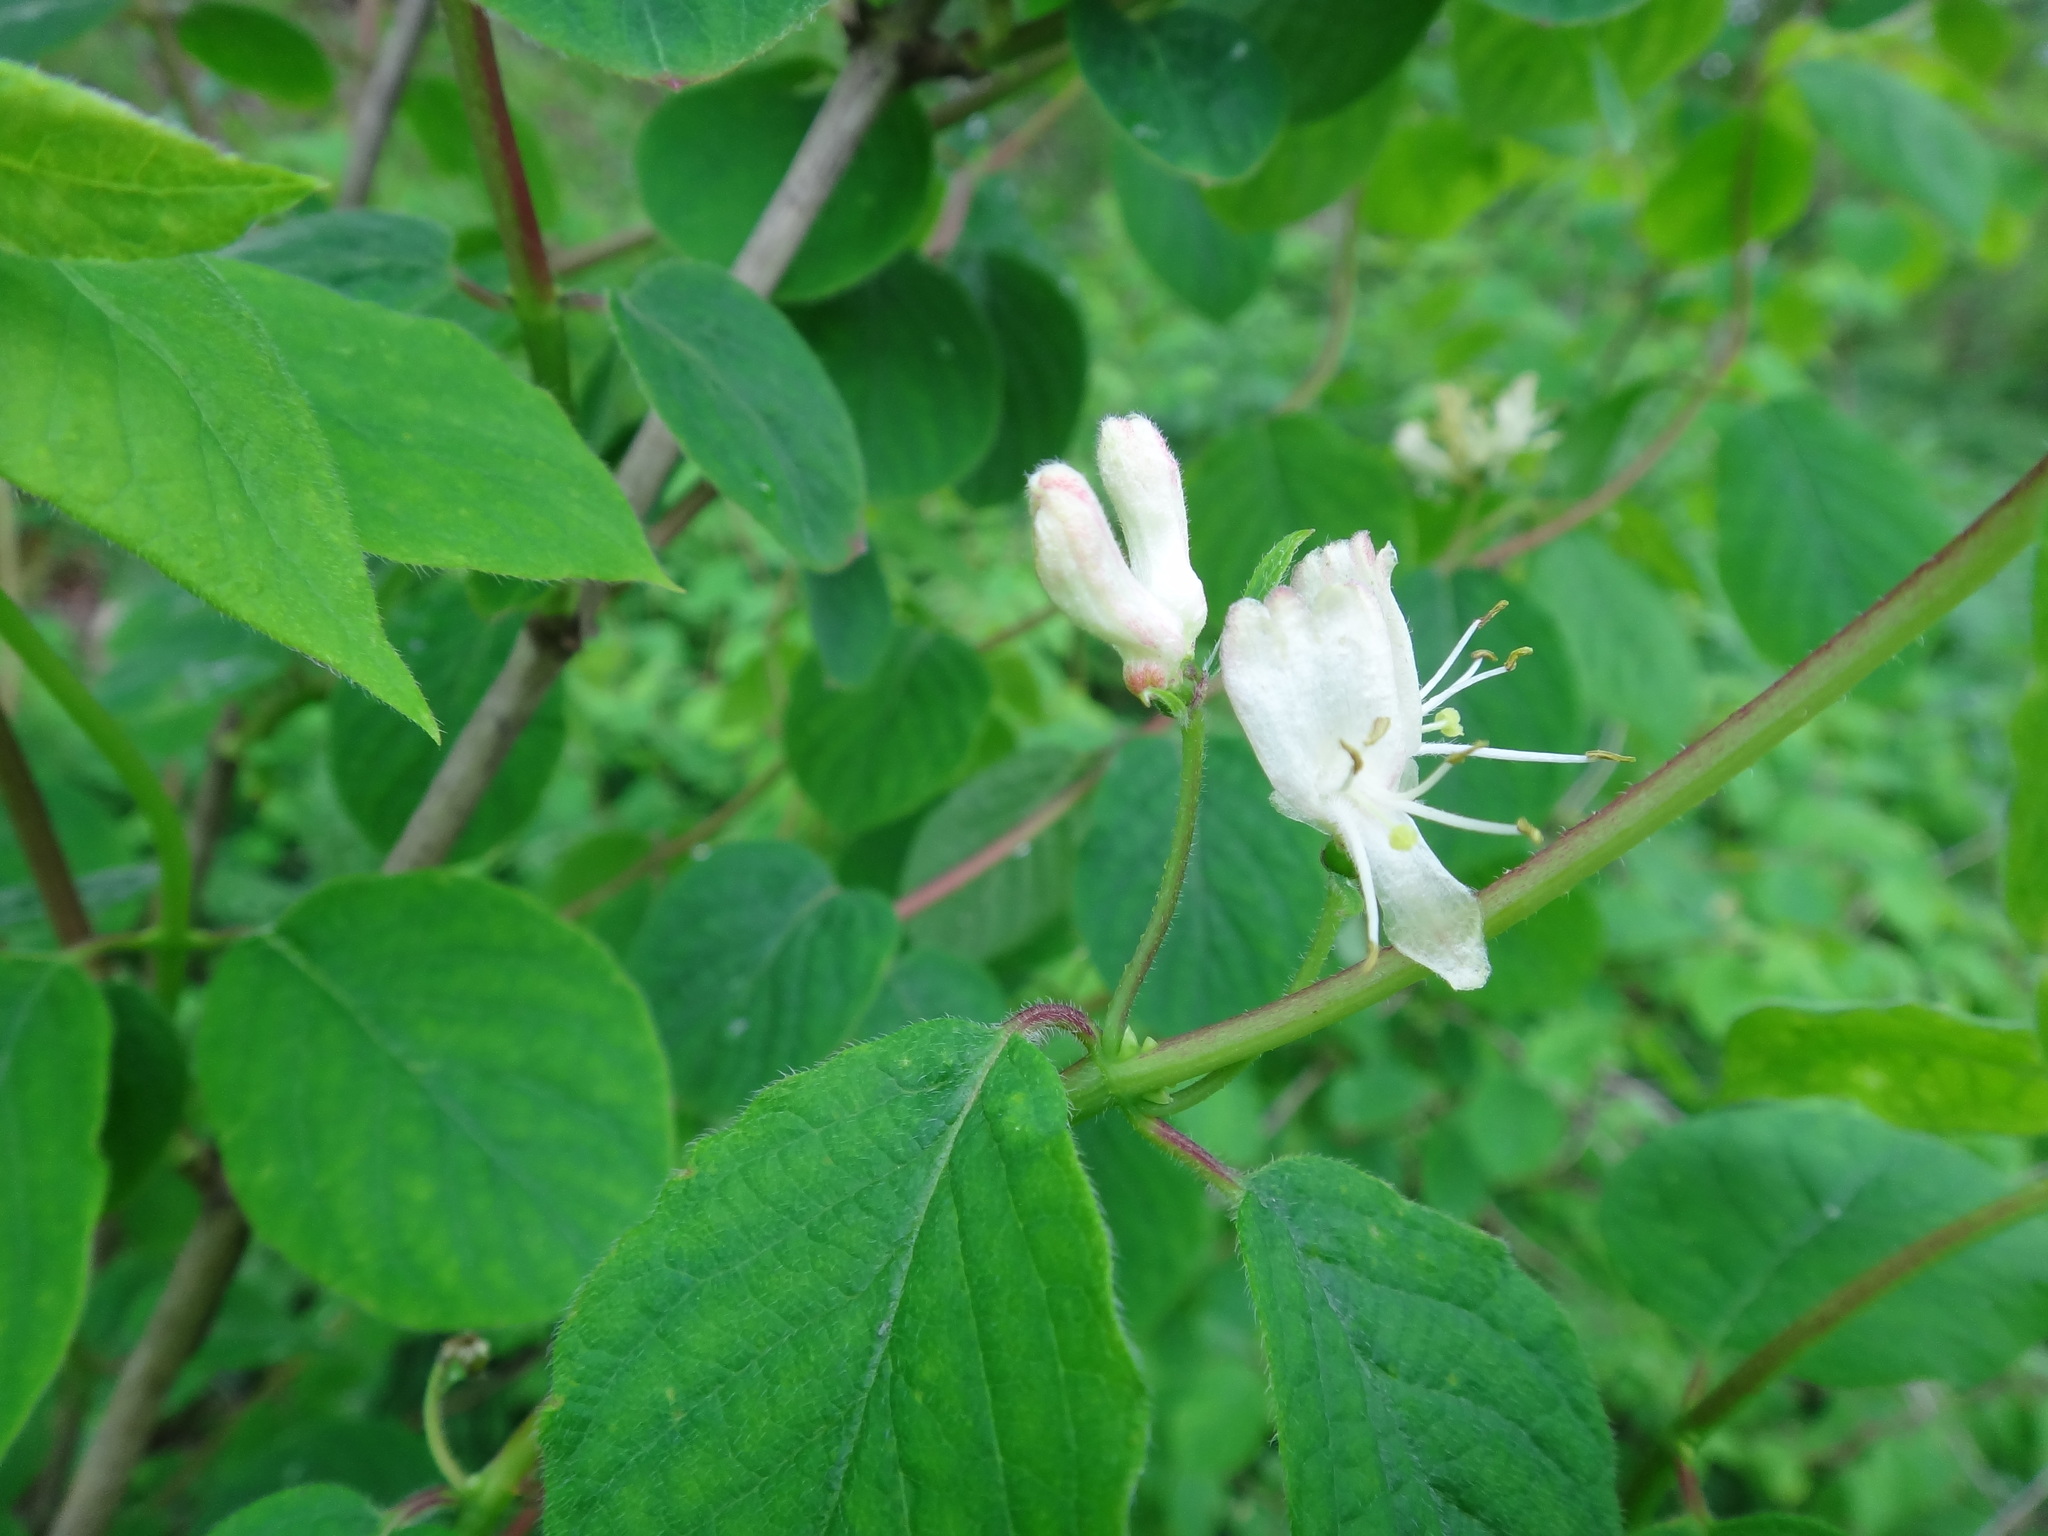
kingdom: Plantae
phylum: Tracheophyta
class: Magnoliopsida
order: Dipsacales
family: Caprifoliaceae
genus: Lonicera
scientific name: Lonicera xylosteum
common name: Fly honeysuckle
